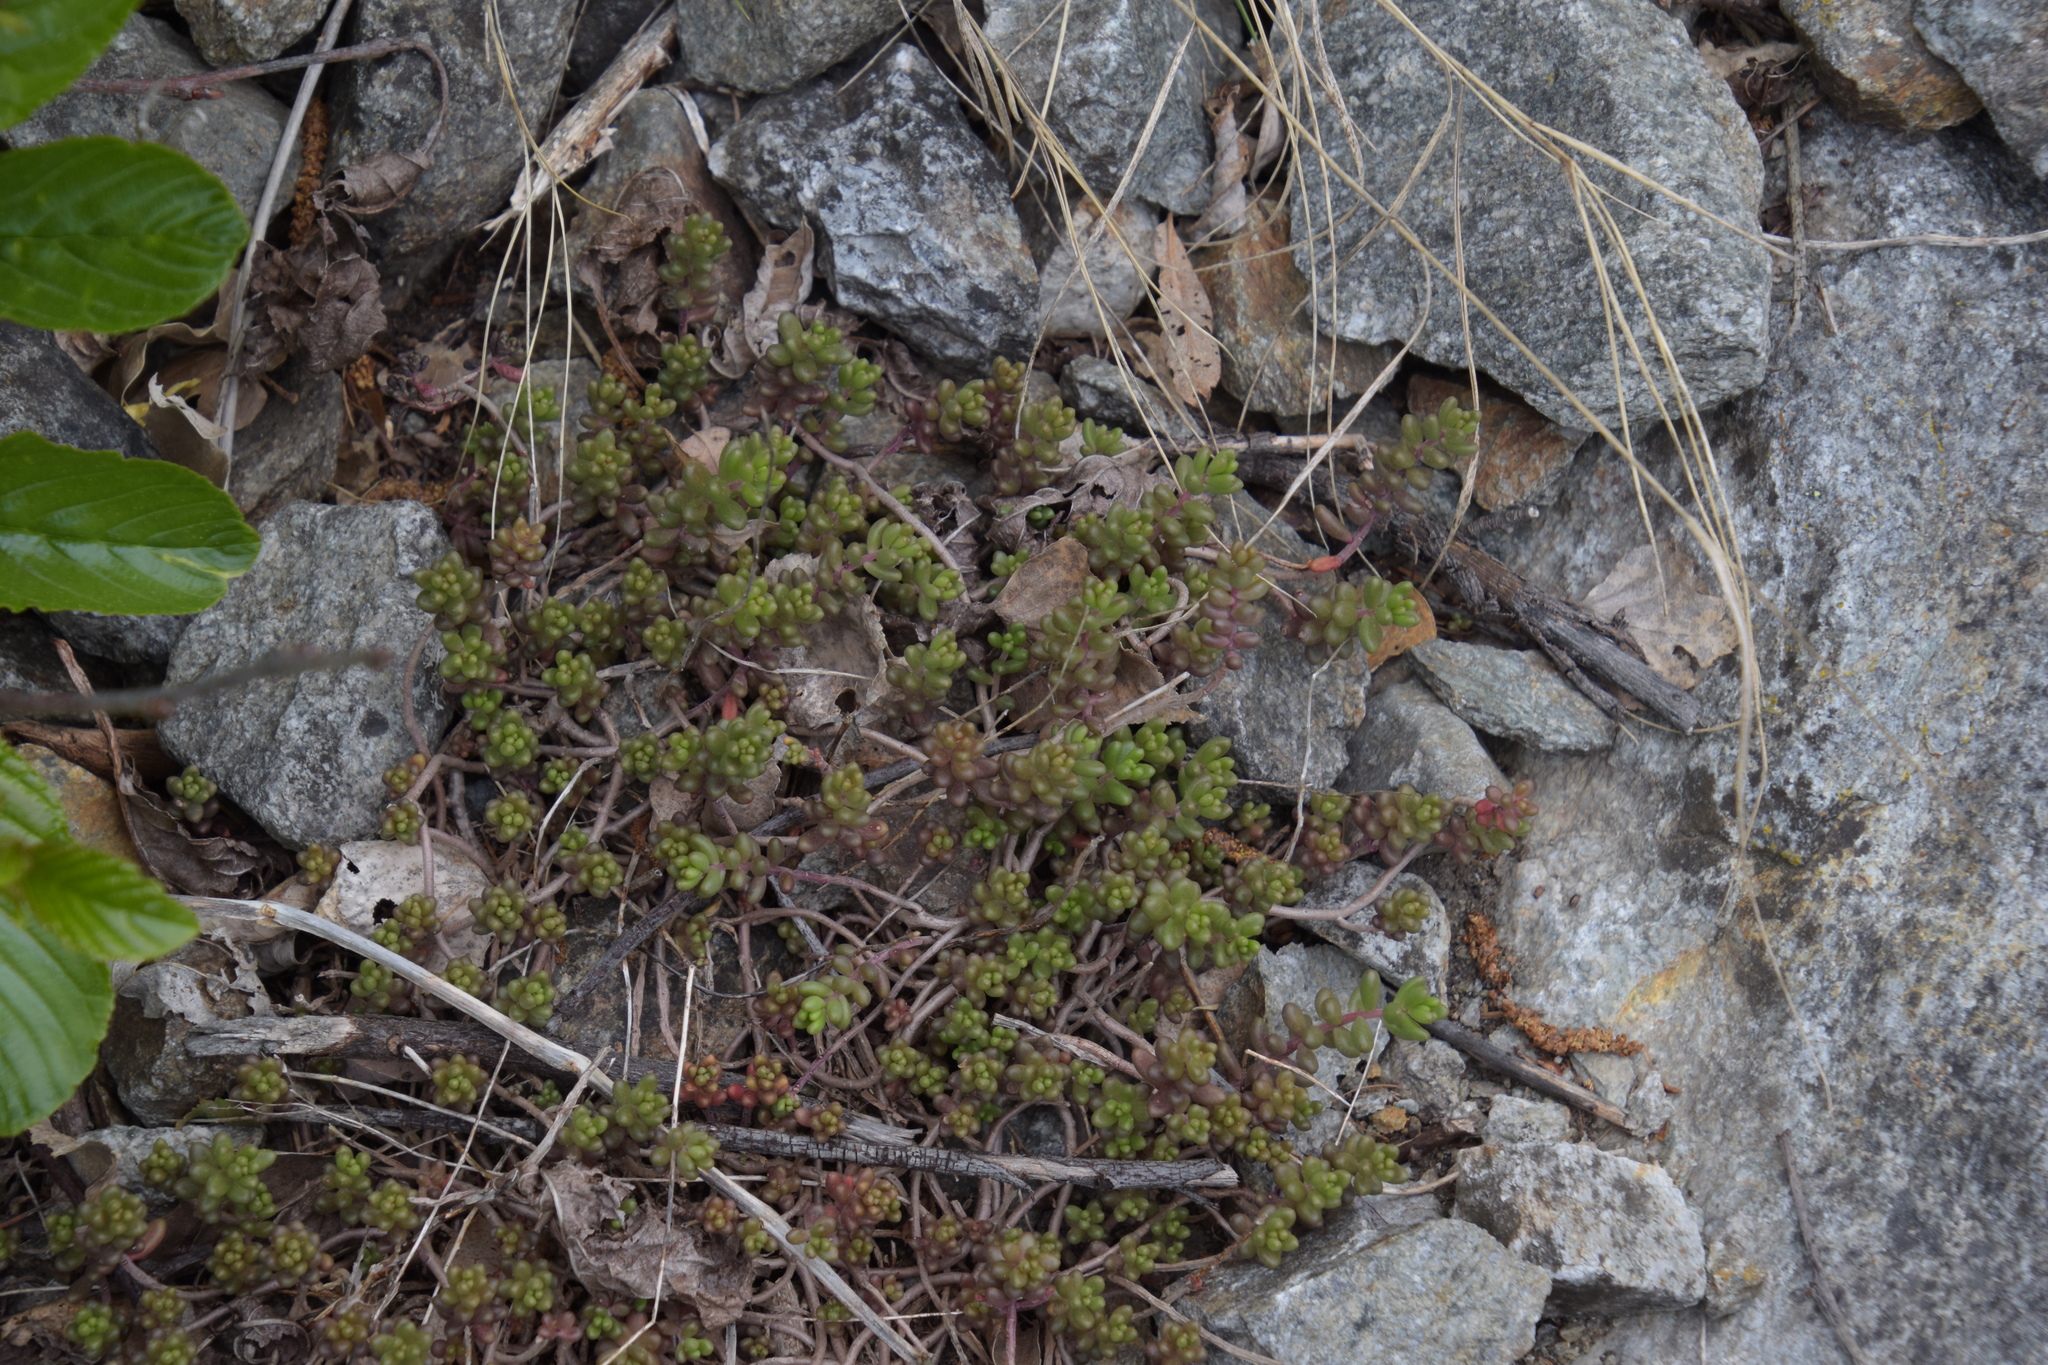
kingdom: Plantae
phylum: Tracheophyta
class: Magnoliopsida
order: Saxifragales
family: Crassulaceae
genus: Sedum
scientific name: Sedum album
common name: White stonecrop
